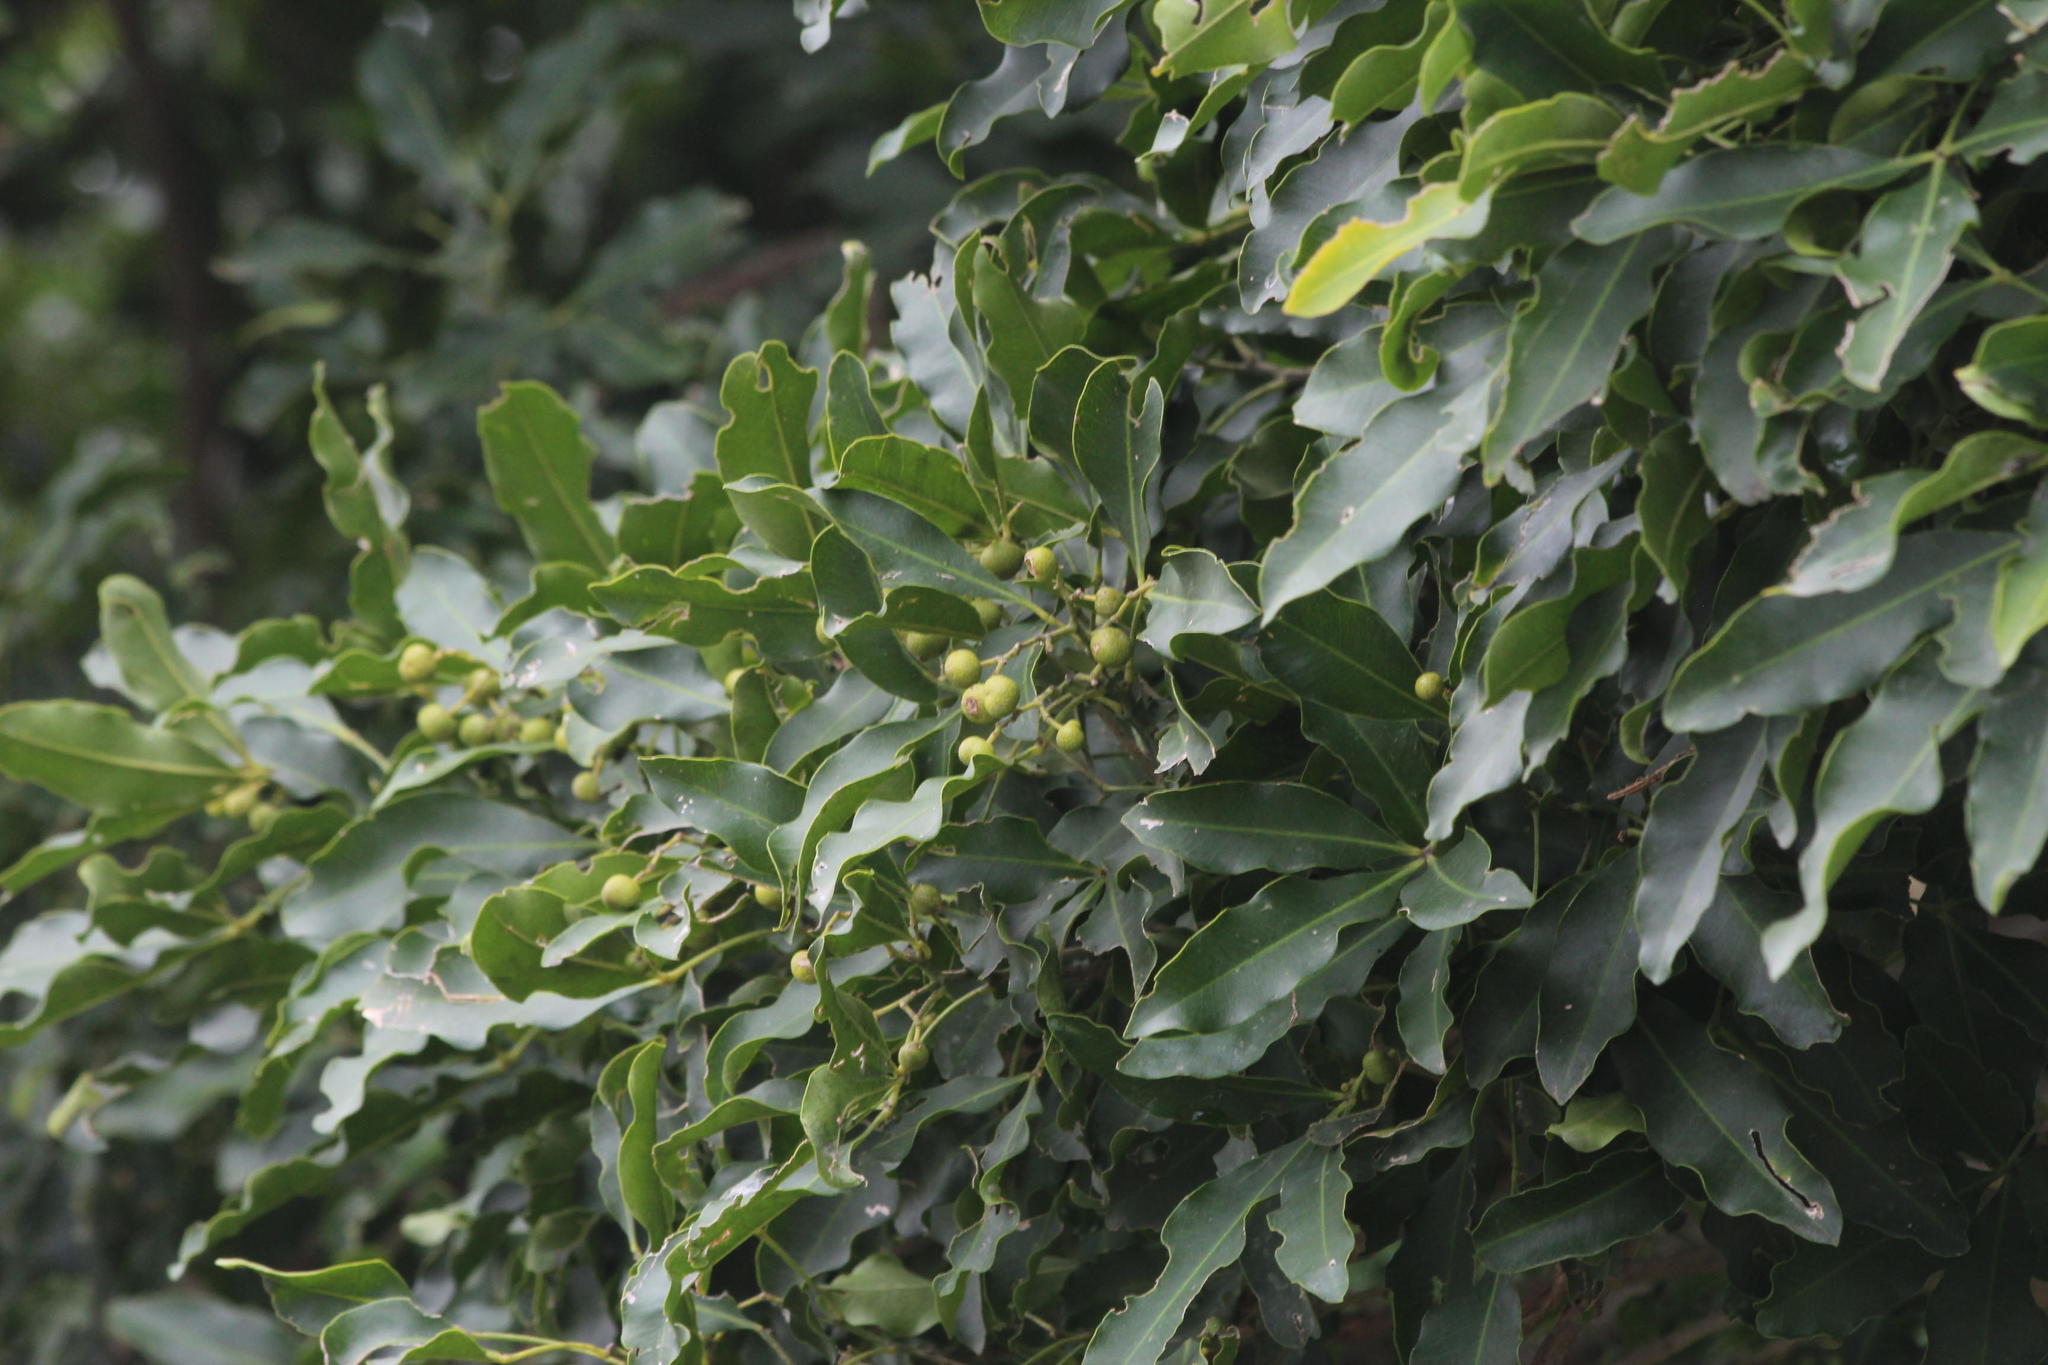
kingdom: Plantae
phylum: Tracheophyta
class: Magnoliopsida
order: Sapindales
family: Rutaceae
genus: Vepris
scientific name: Vepris lanceolata
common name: White ironwood
